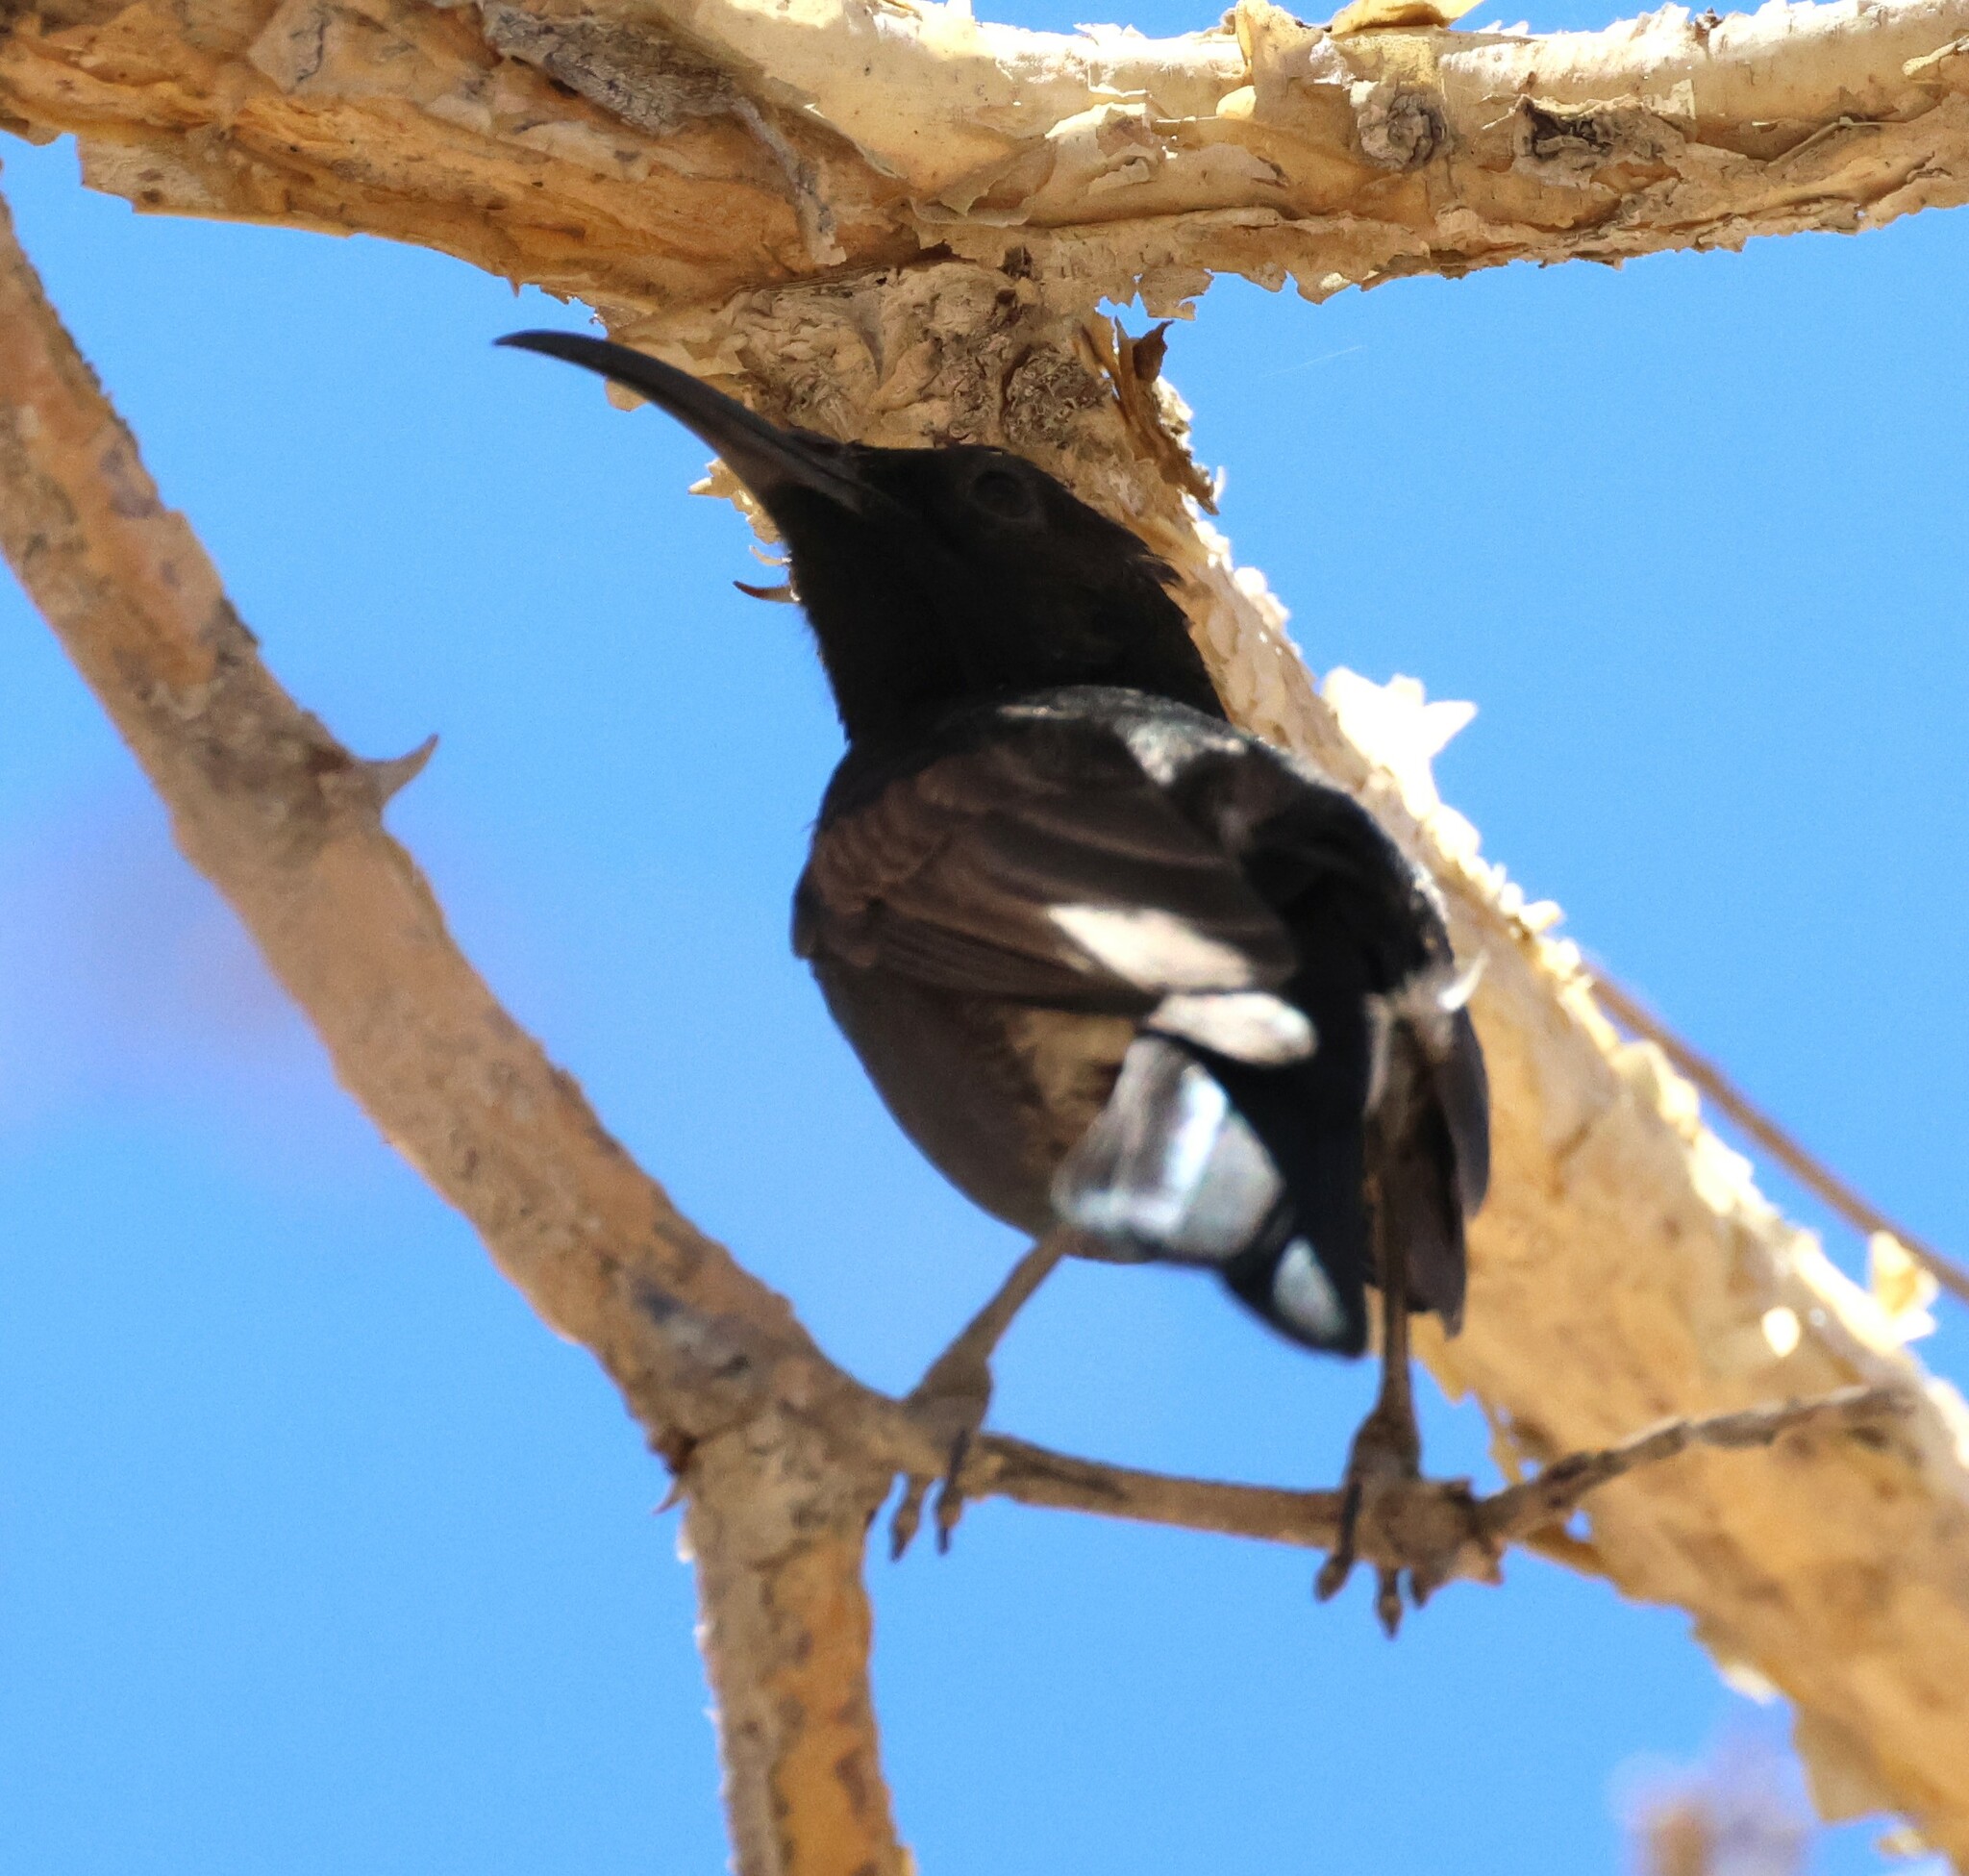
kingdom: Animalia
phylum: Chordata
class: Aves
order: Passeriformes
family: Nectariniidae
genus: Cinnyris
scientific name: Cinnyris fuscus
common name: Dusky sunbird
